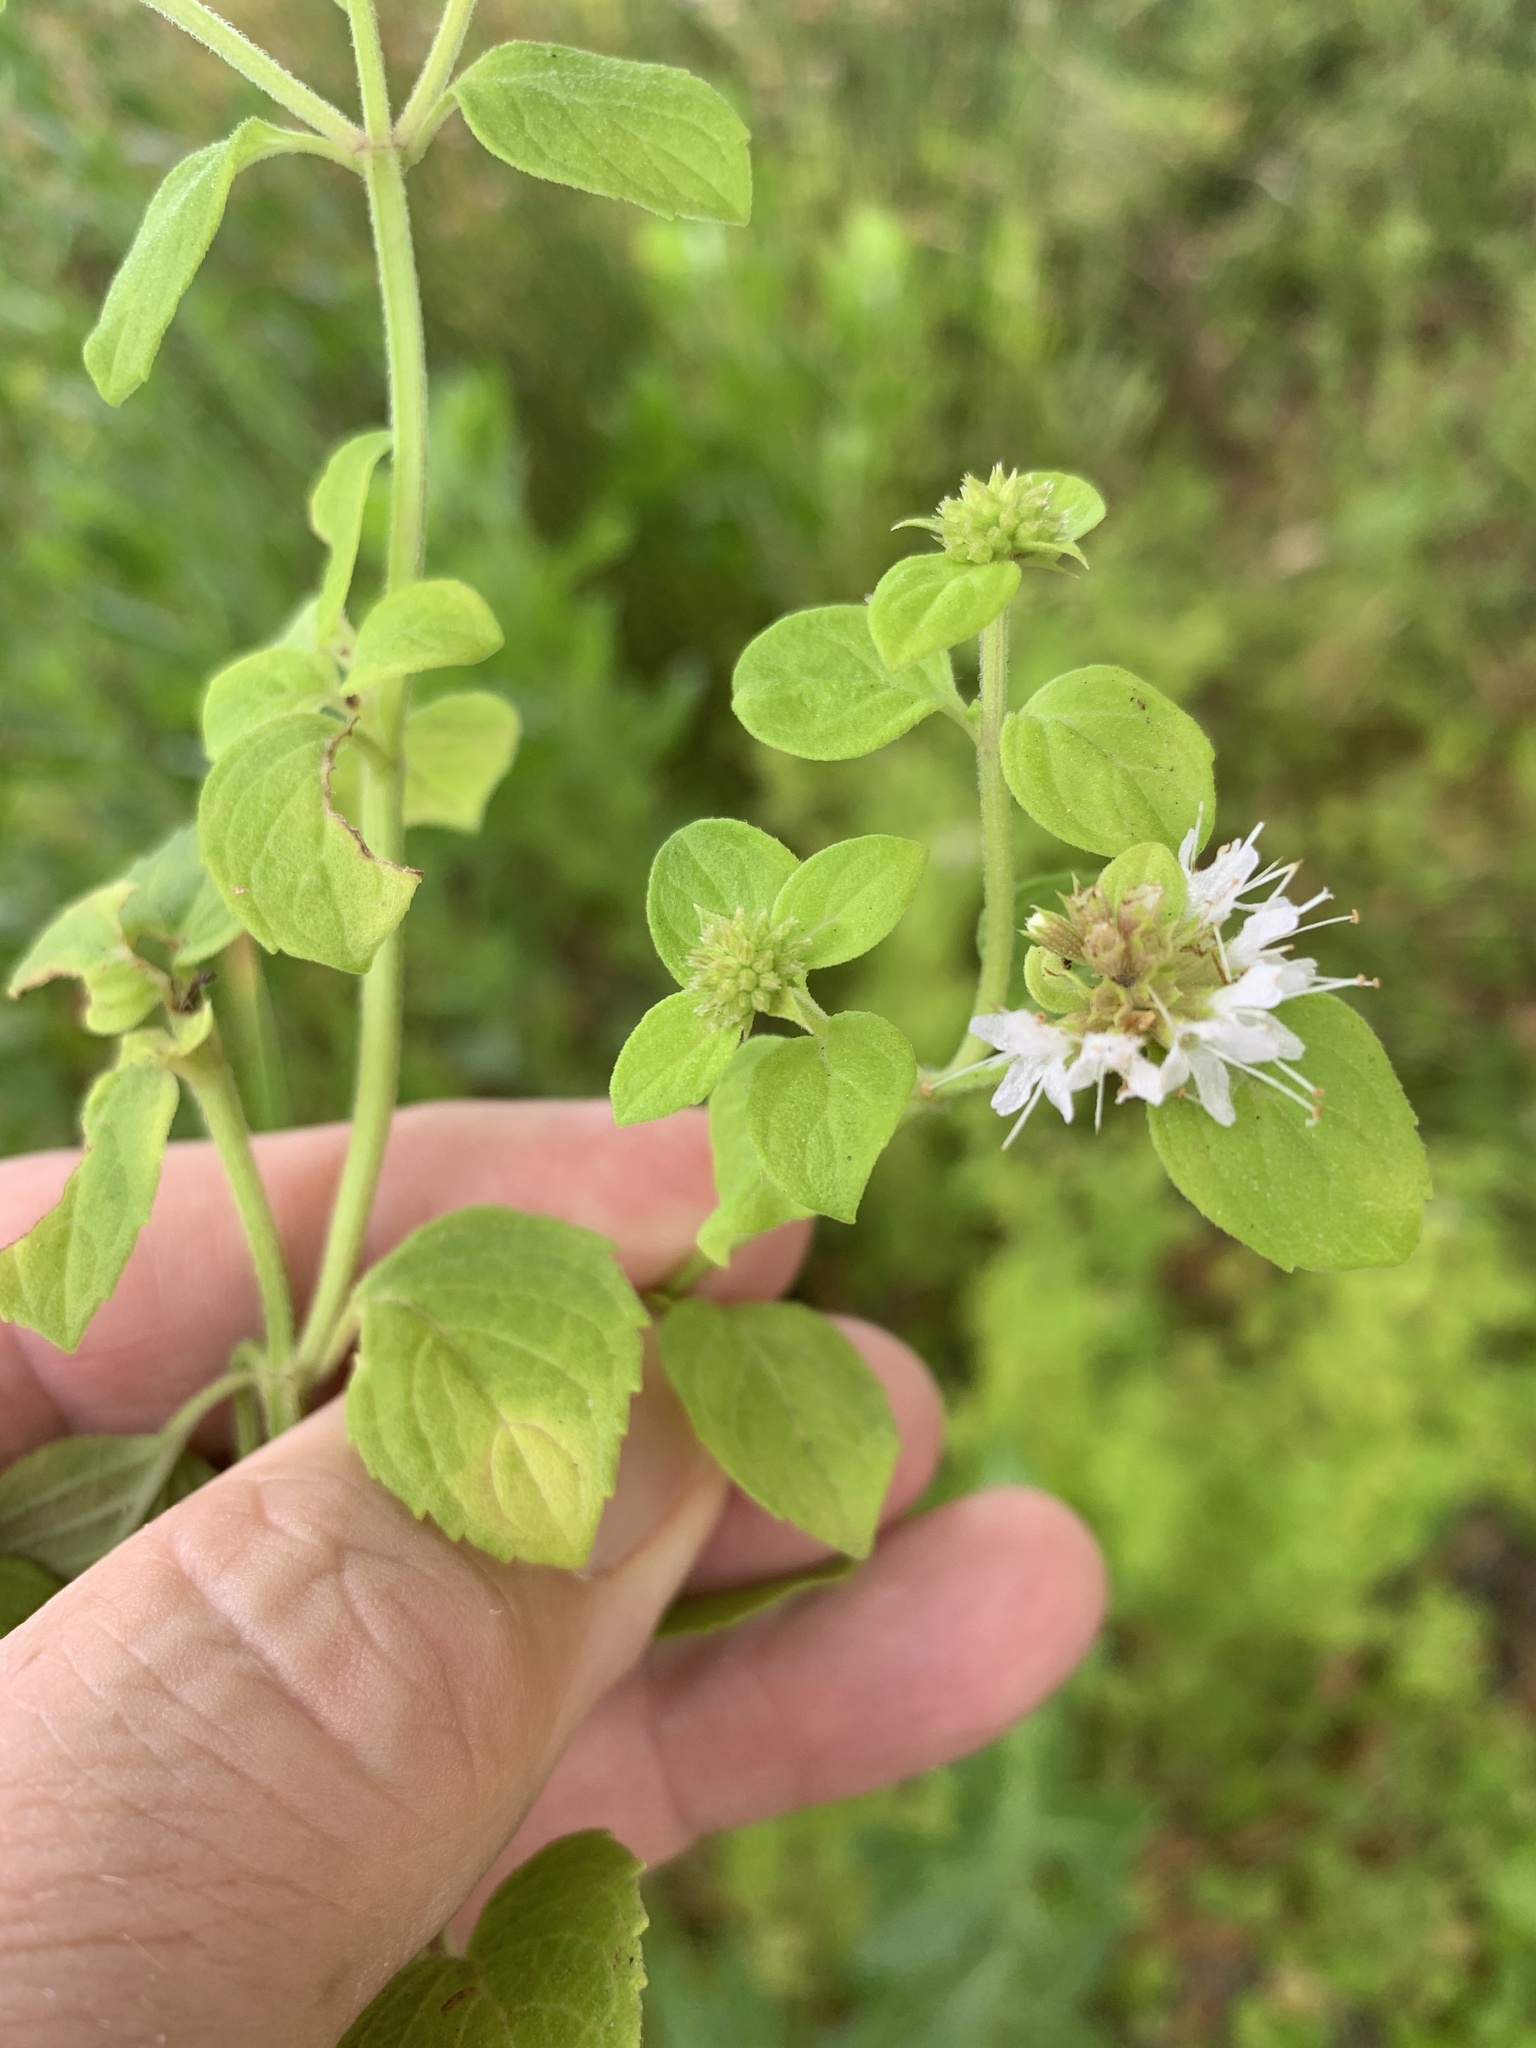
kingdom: Plantae
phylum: Tracheophyta
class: Magnoliopsida
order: Lamiales
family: Lamiaceae
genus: Mentha
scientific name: Mentha aquatica
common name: Water mint
